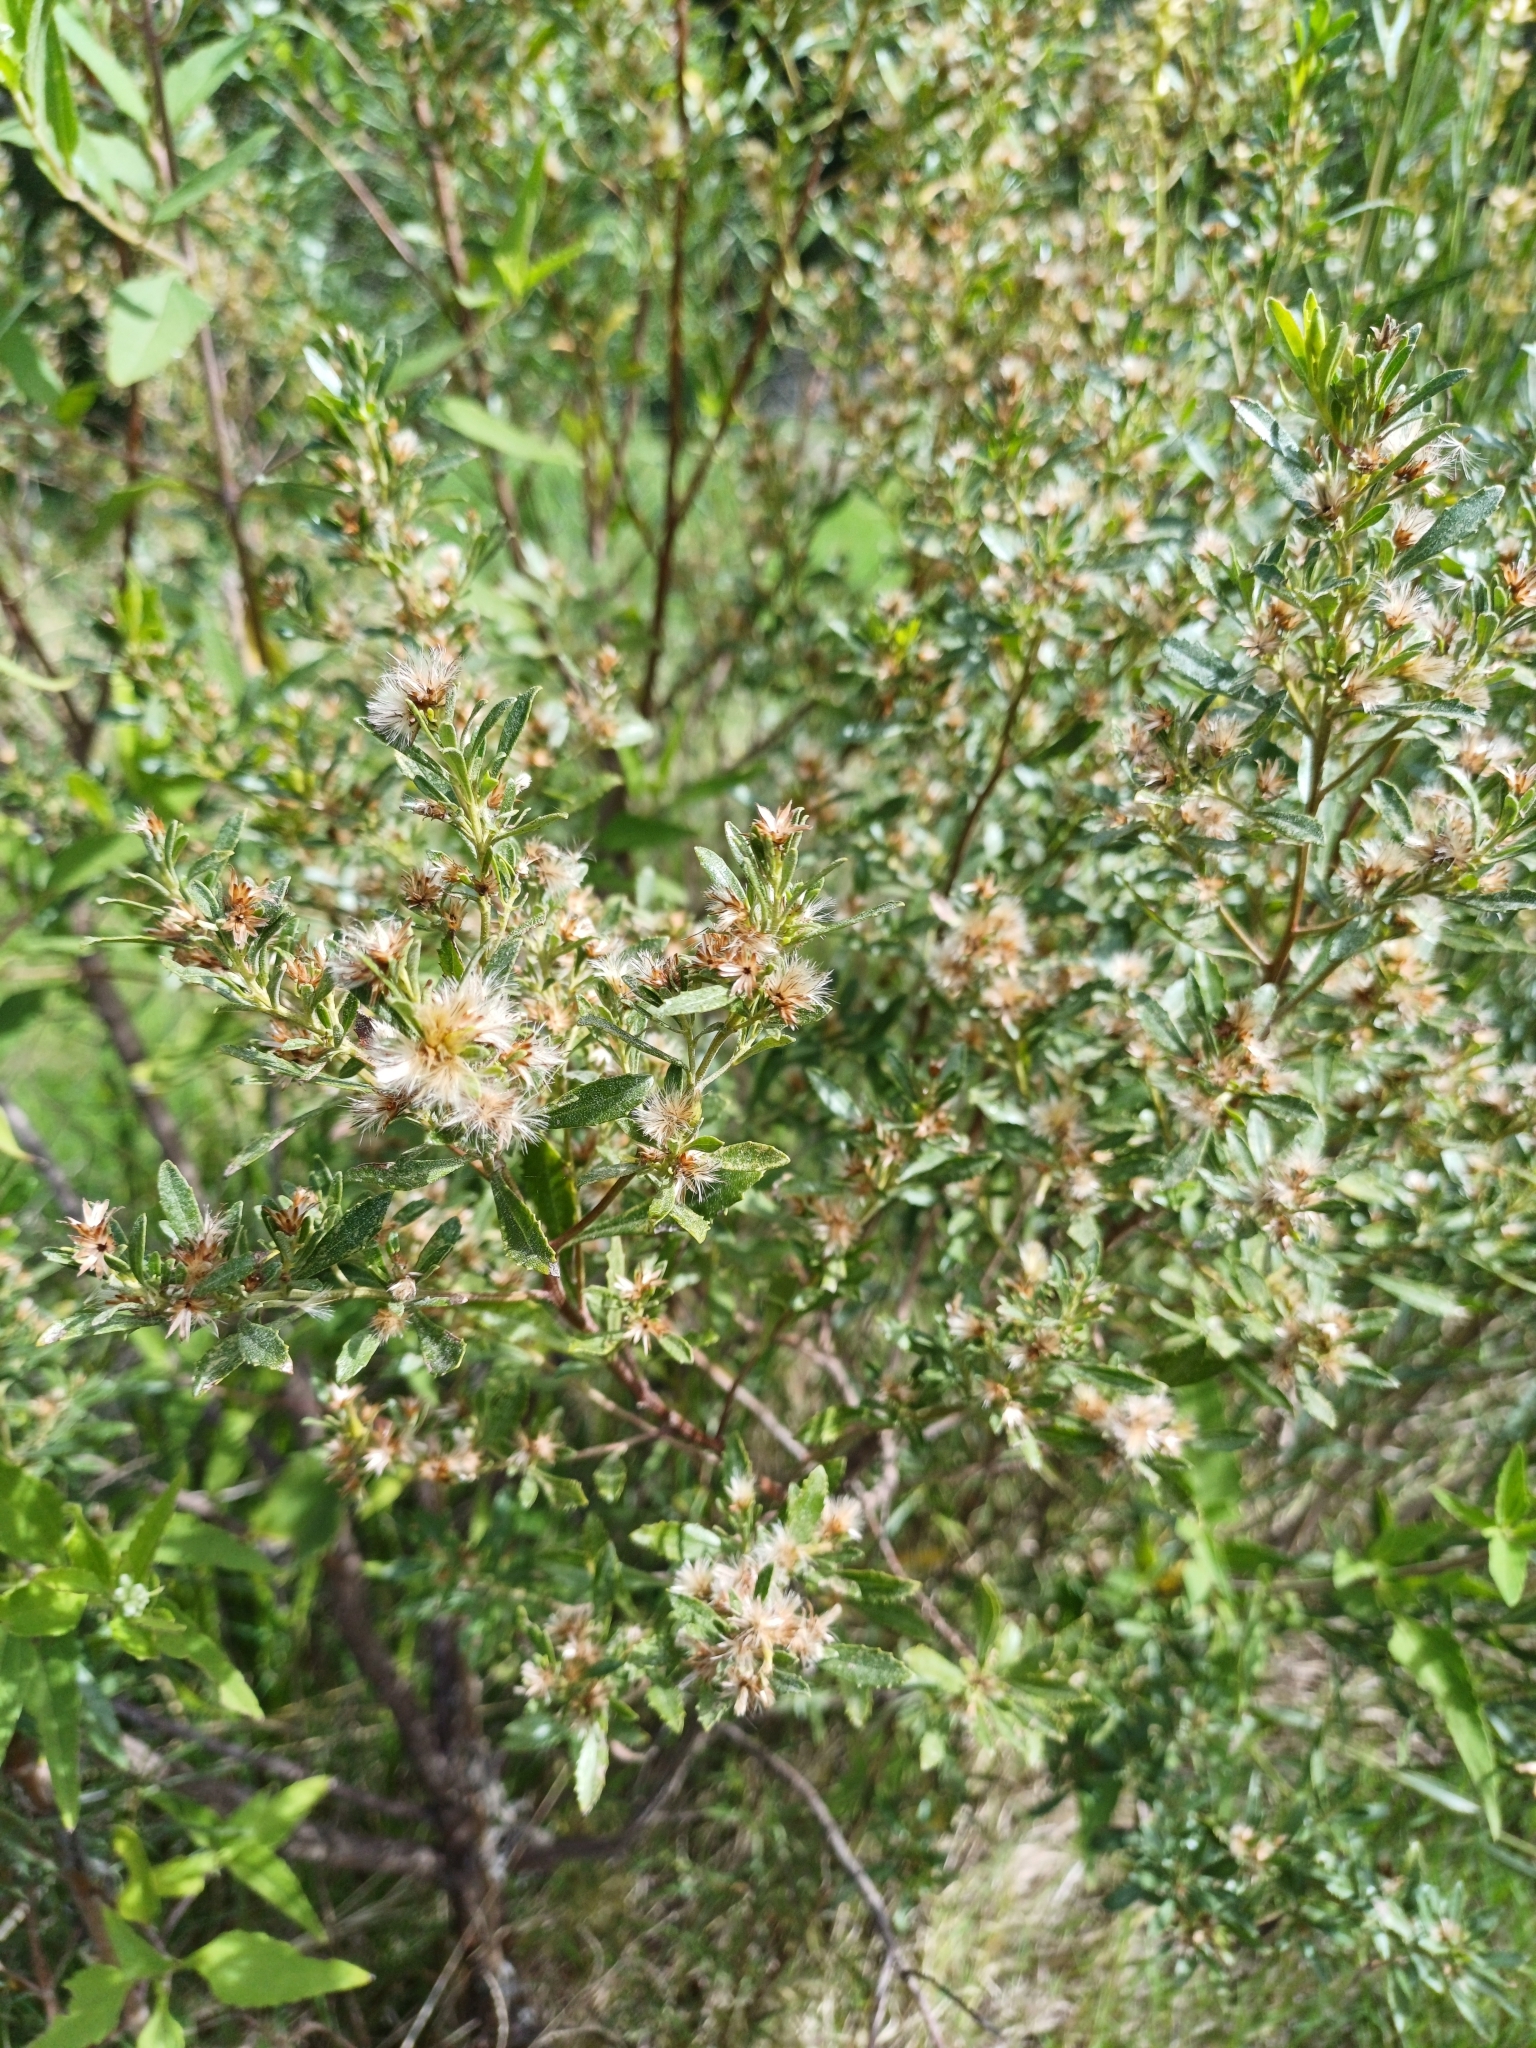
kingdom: Plantae
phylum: Tracheophyta
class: Magnoliopsida
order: Asterales
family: Asteraceae
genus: Baccharis
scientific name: Baccharis microdonta
